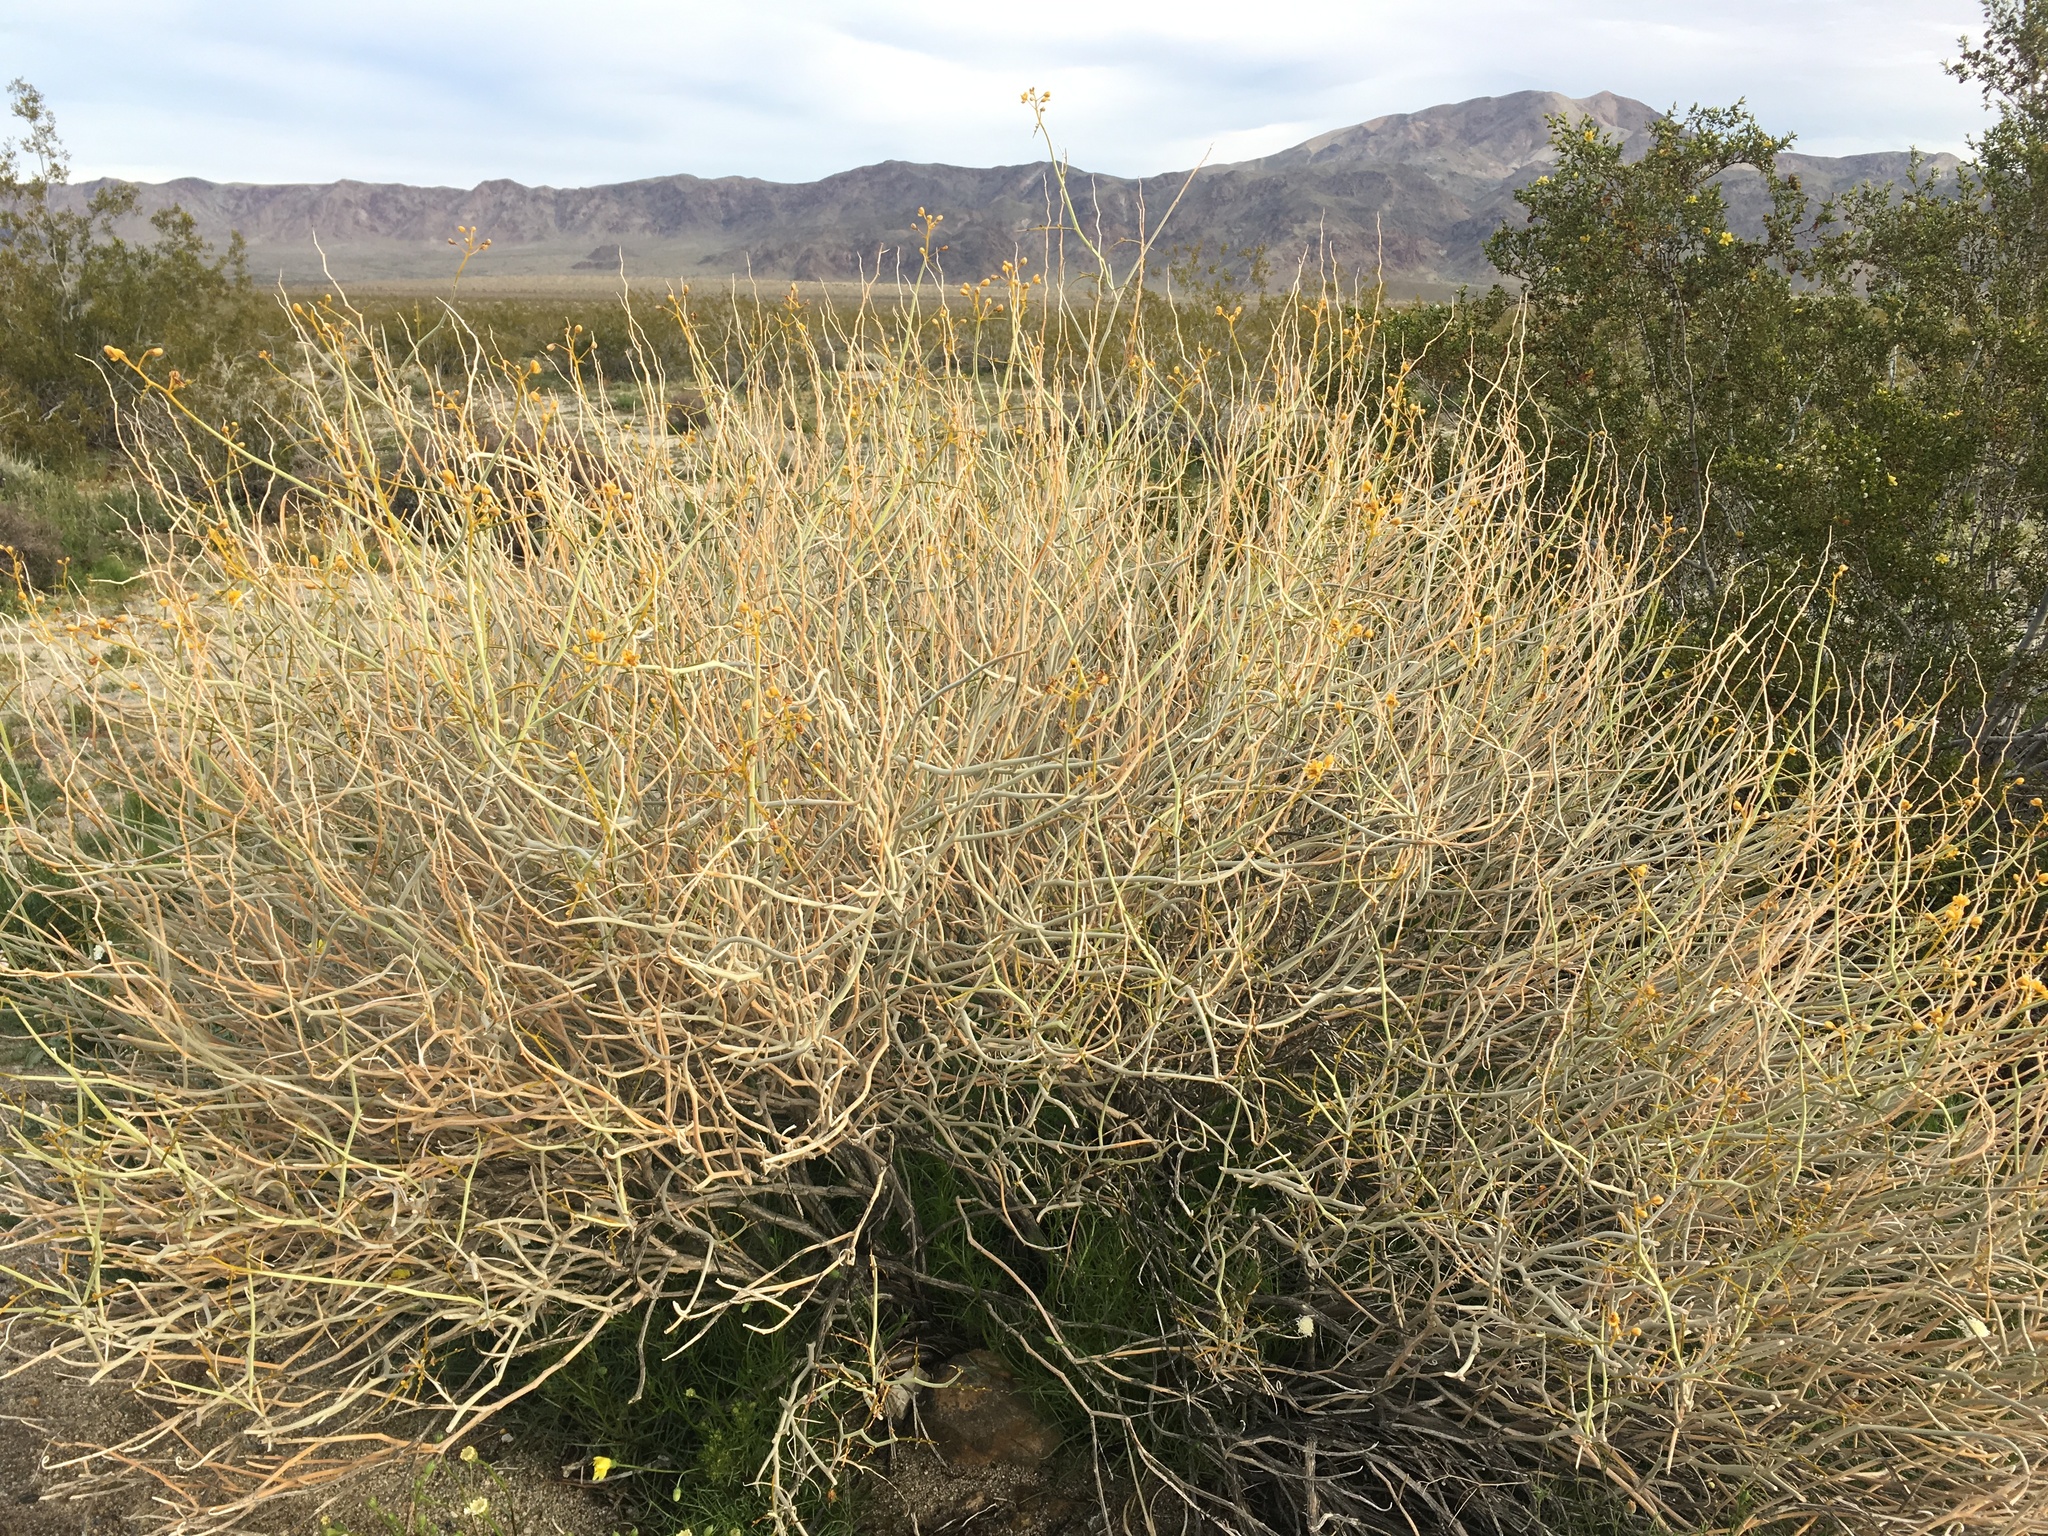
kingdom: Plantae
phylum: Tracheophyta
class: Magnoliopsida
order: Fabales
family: Fabaceae
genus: Senna
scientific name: Senna armata
